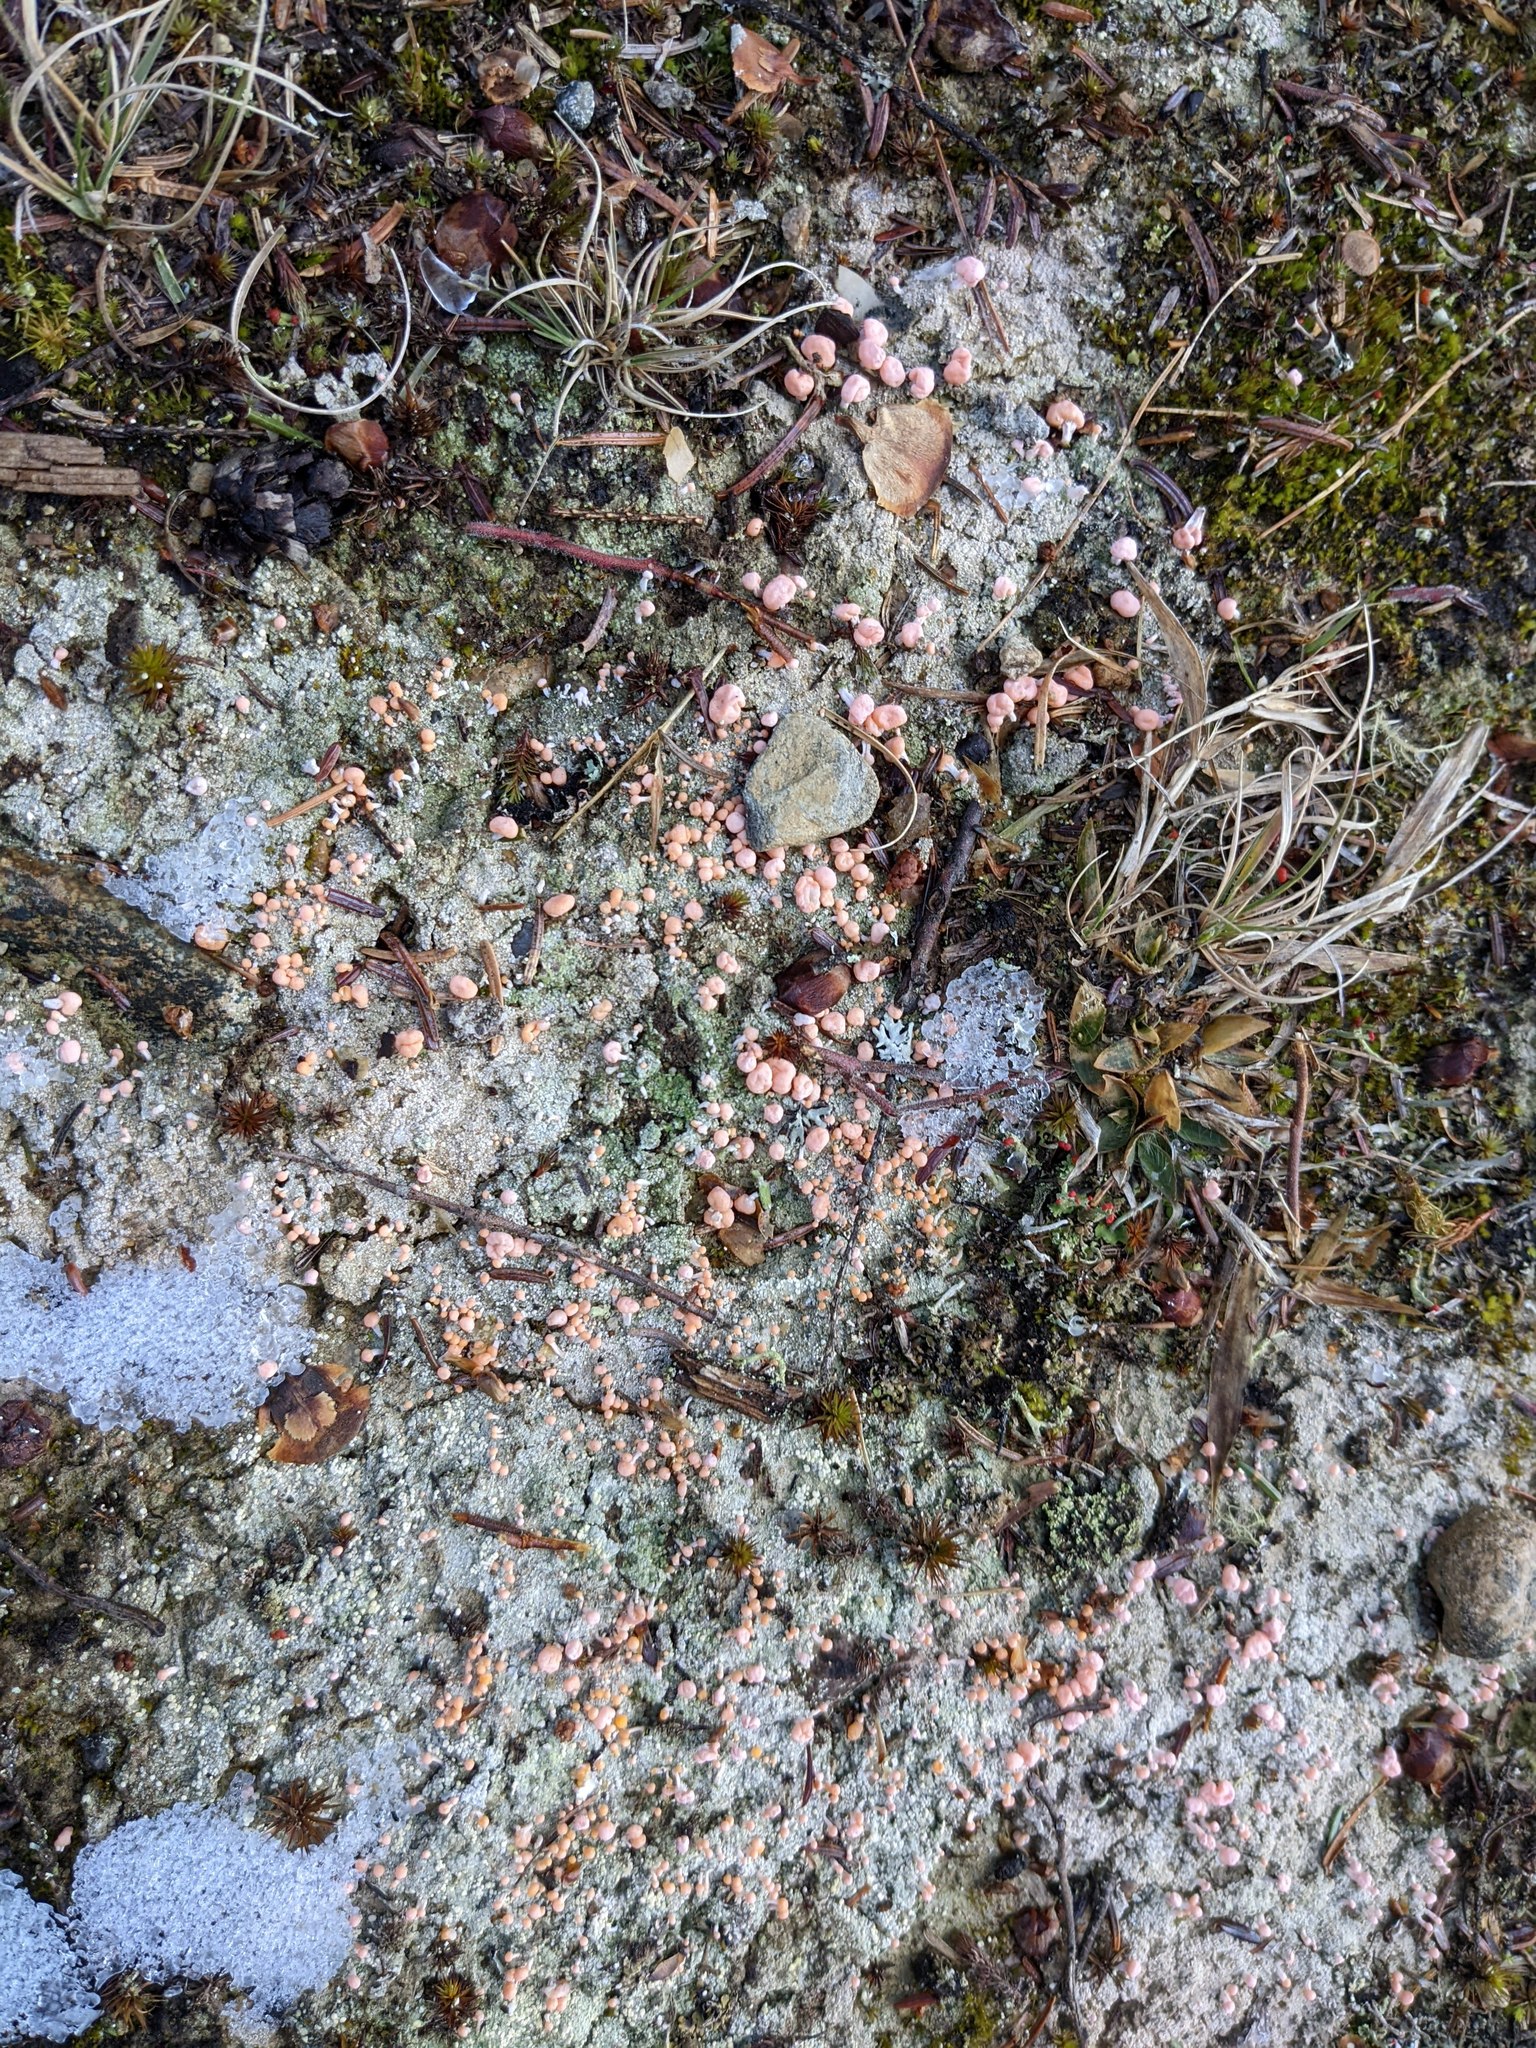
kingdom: Fungi
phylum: Ascomycota
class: Lecanoromycetes
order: Pertusariales
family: Icmadophilaceae
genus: Dibaeis
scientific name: Dibaeis baeomyces
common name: Pink earth lichen
